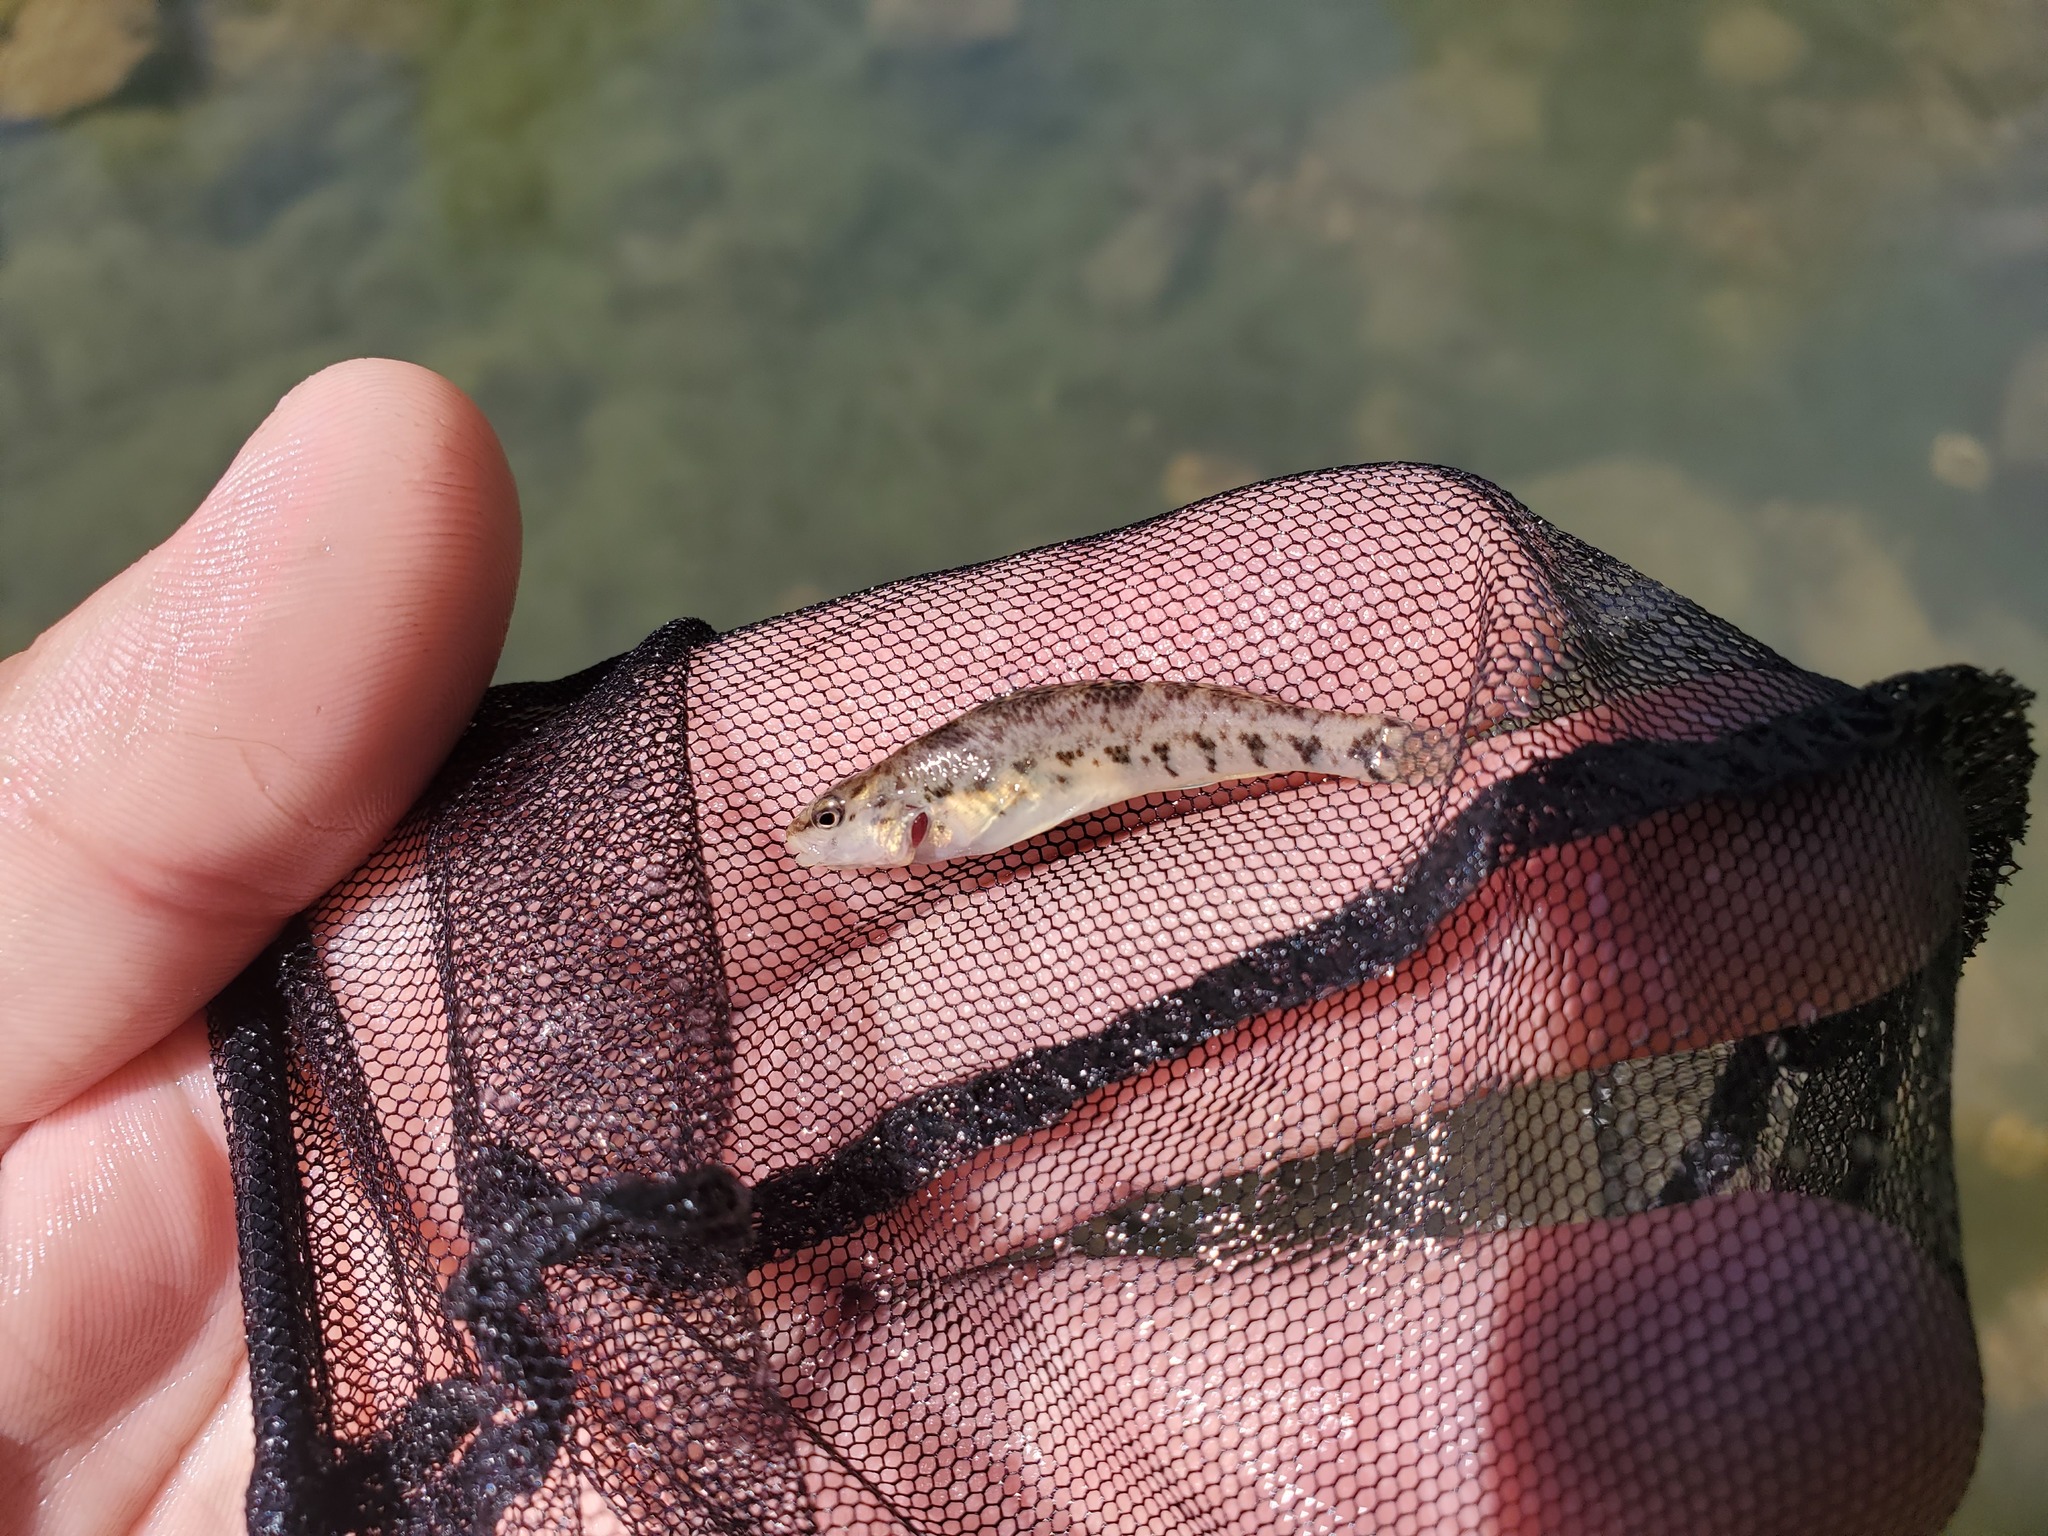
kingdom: Animalia
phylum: Chordata
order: Perciformes
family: Percidae
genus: Etheostoma
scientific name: Etheostoma caeruleum
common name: Rainbow darter
